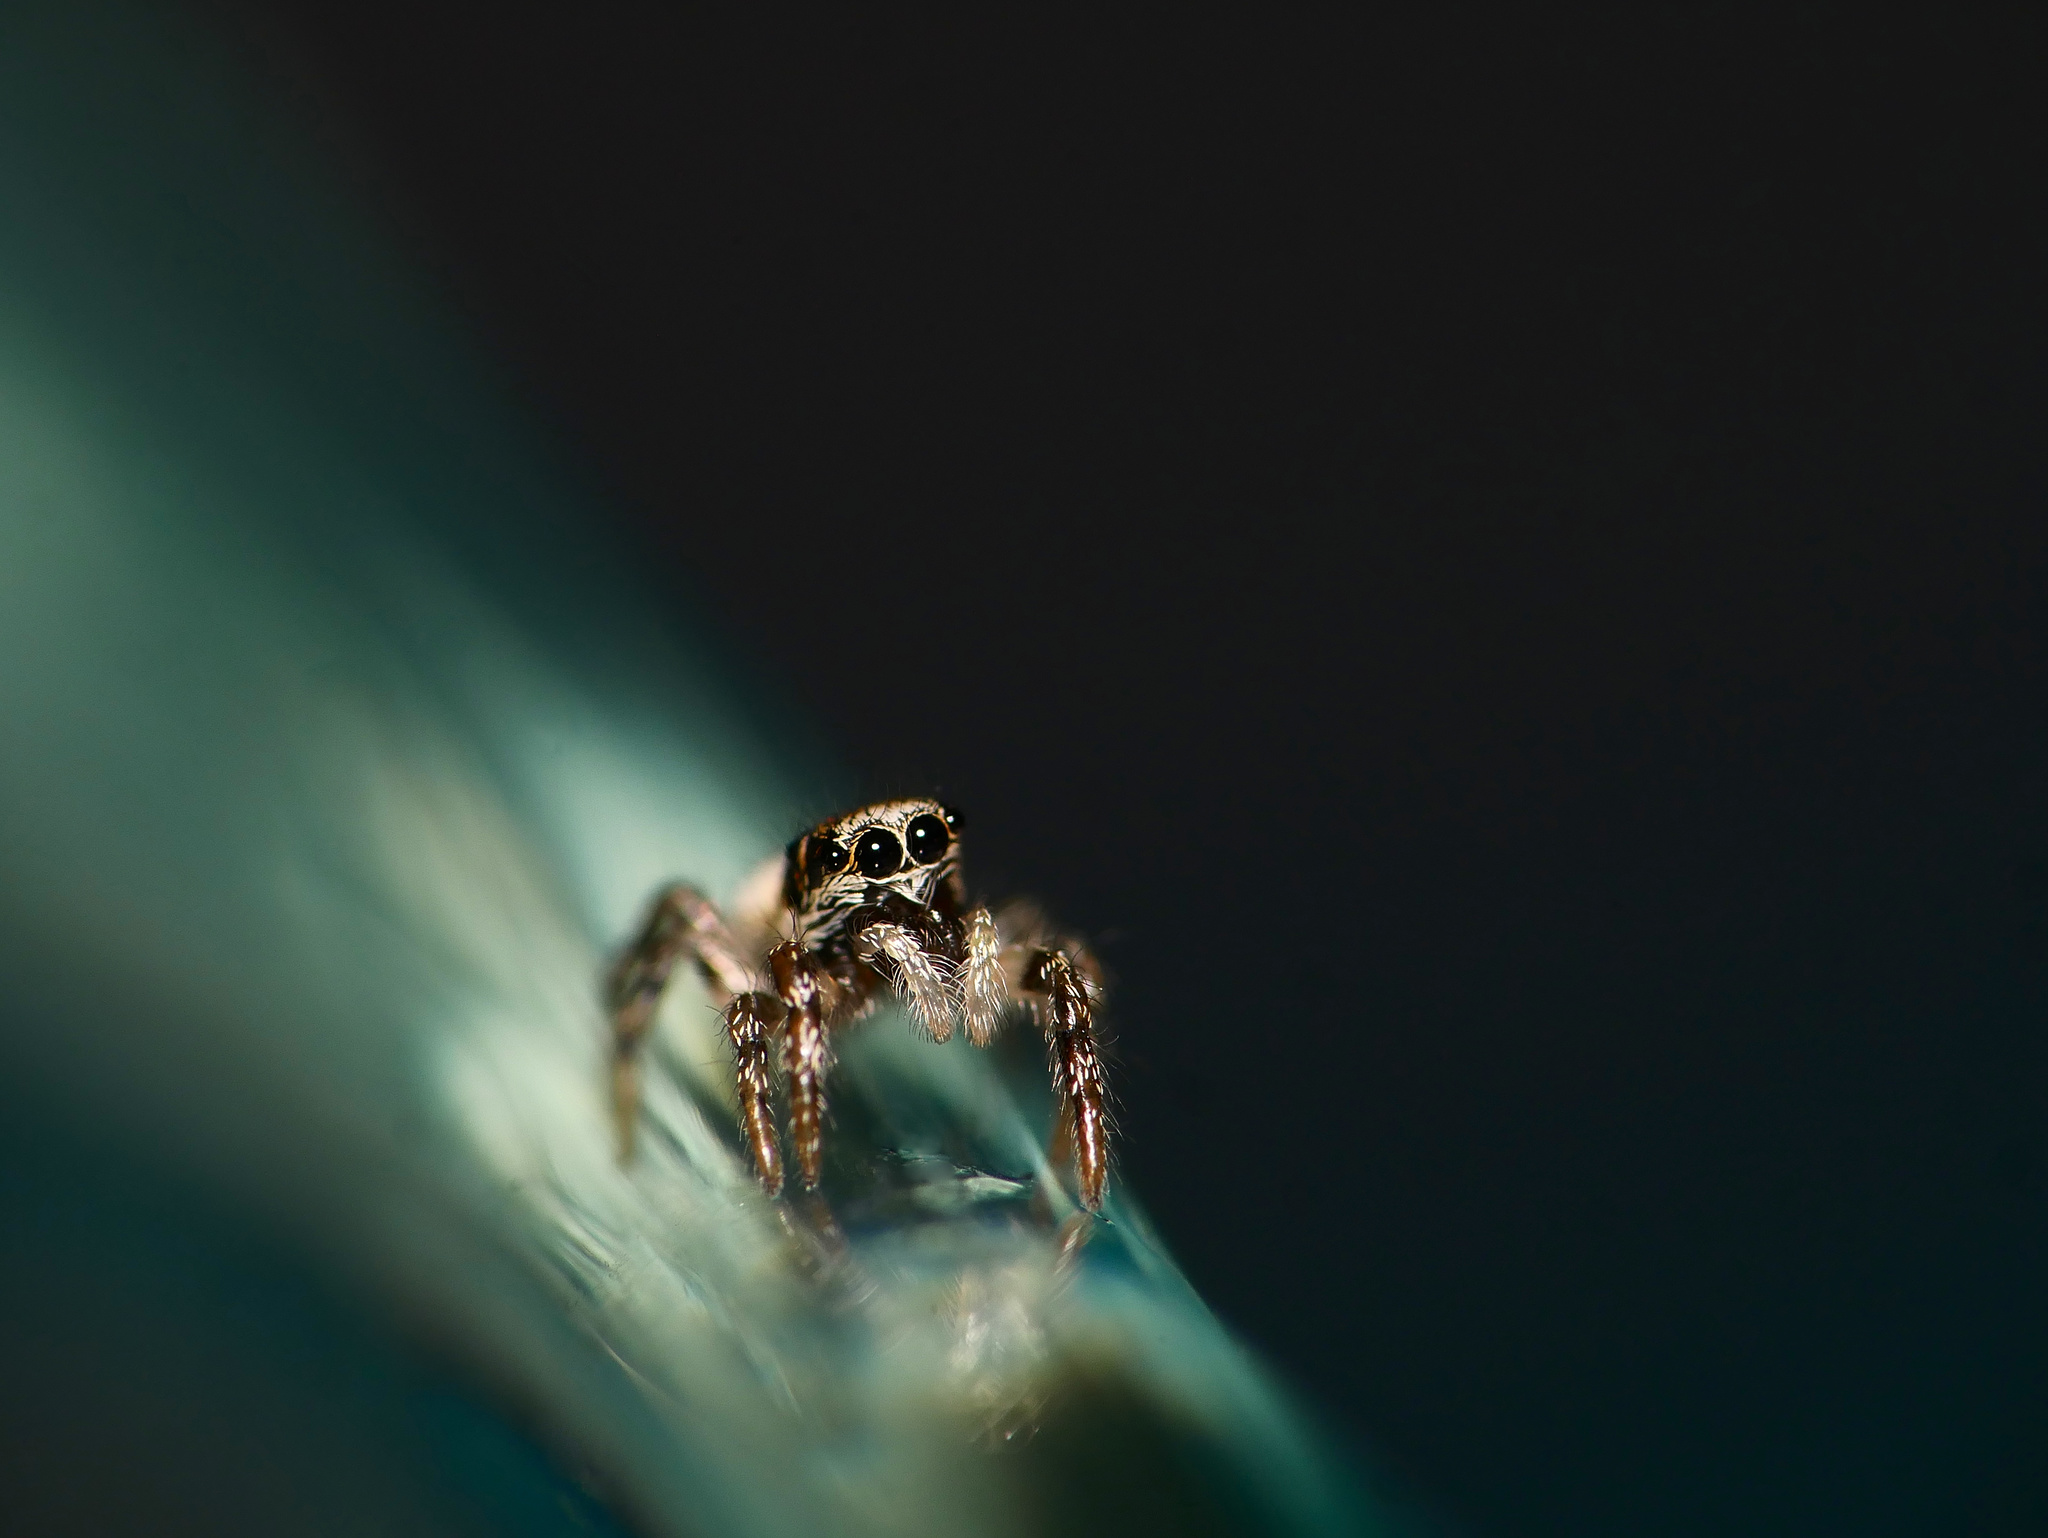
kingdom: Animalia
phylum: Arthropoda
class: Arachnida
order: Araneae
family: Salticidae
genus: Salticus
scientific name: Salticus scenicus
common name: Zebra jumper
